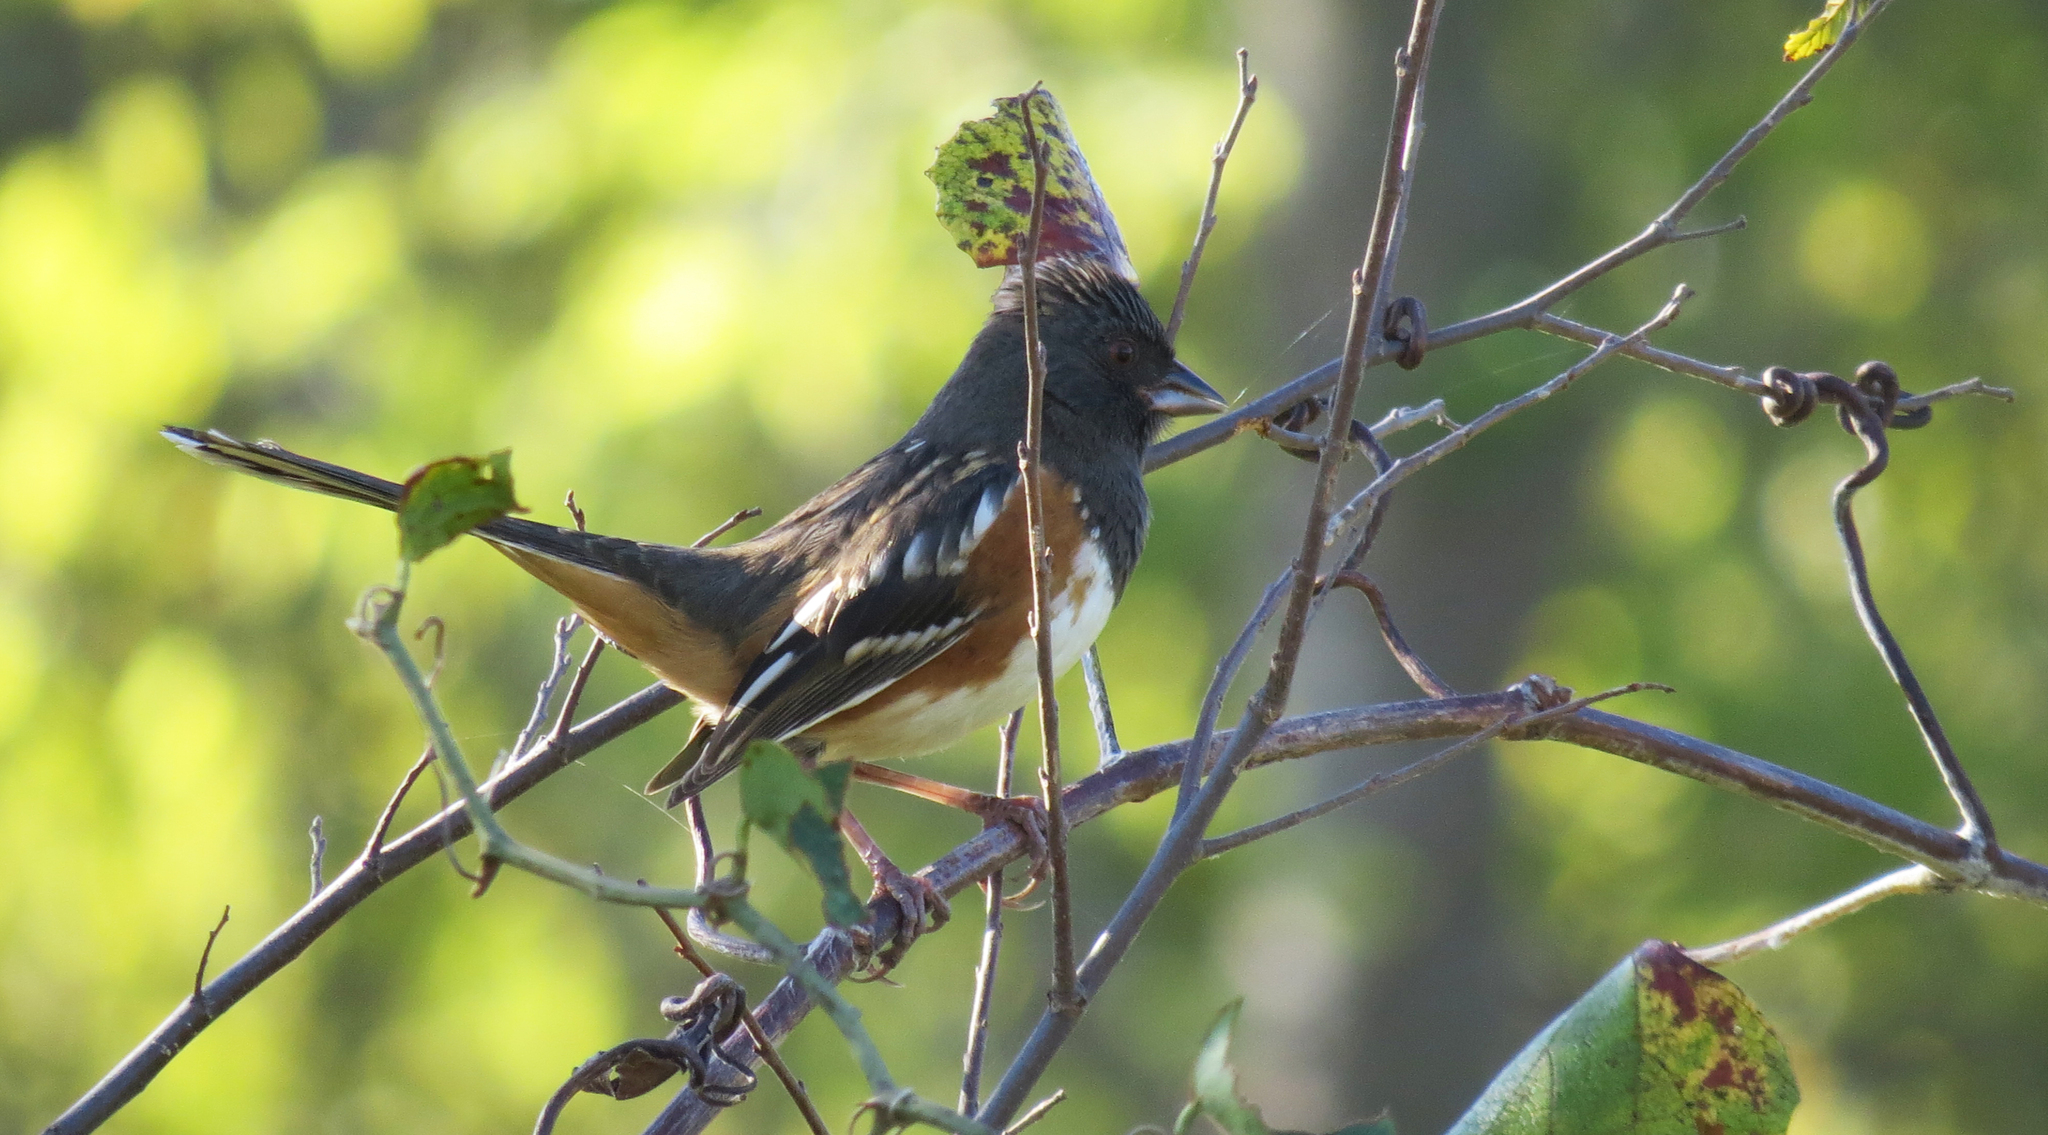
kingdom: Animalia
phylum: Chordata
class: Aves
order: Passeriformes
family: Passerellidae
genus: Pipilo
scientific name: Pipilo maculatus
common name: Spotted towhee
